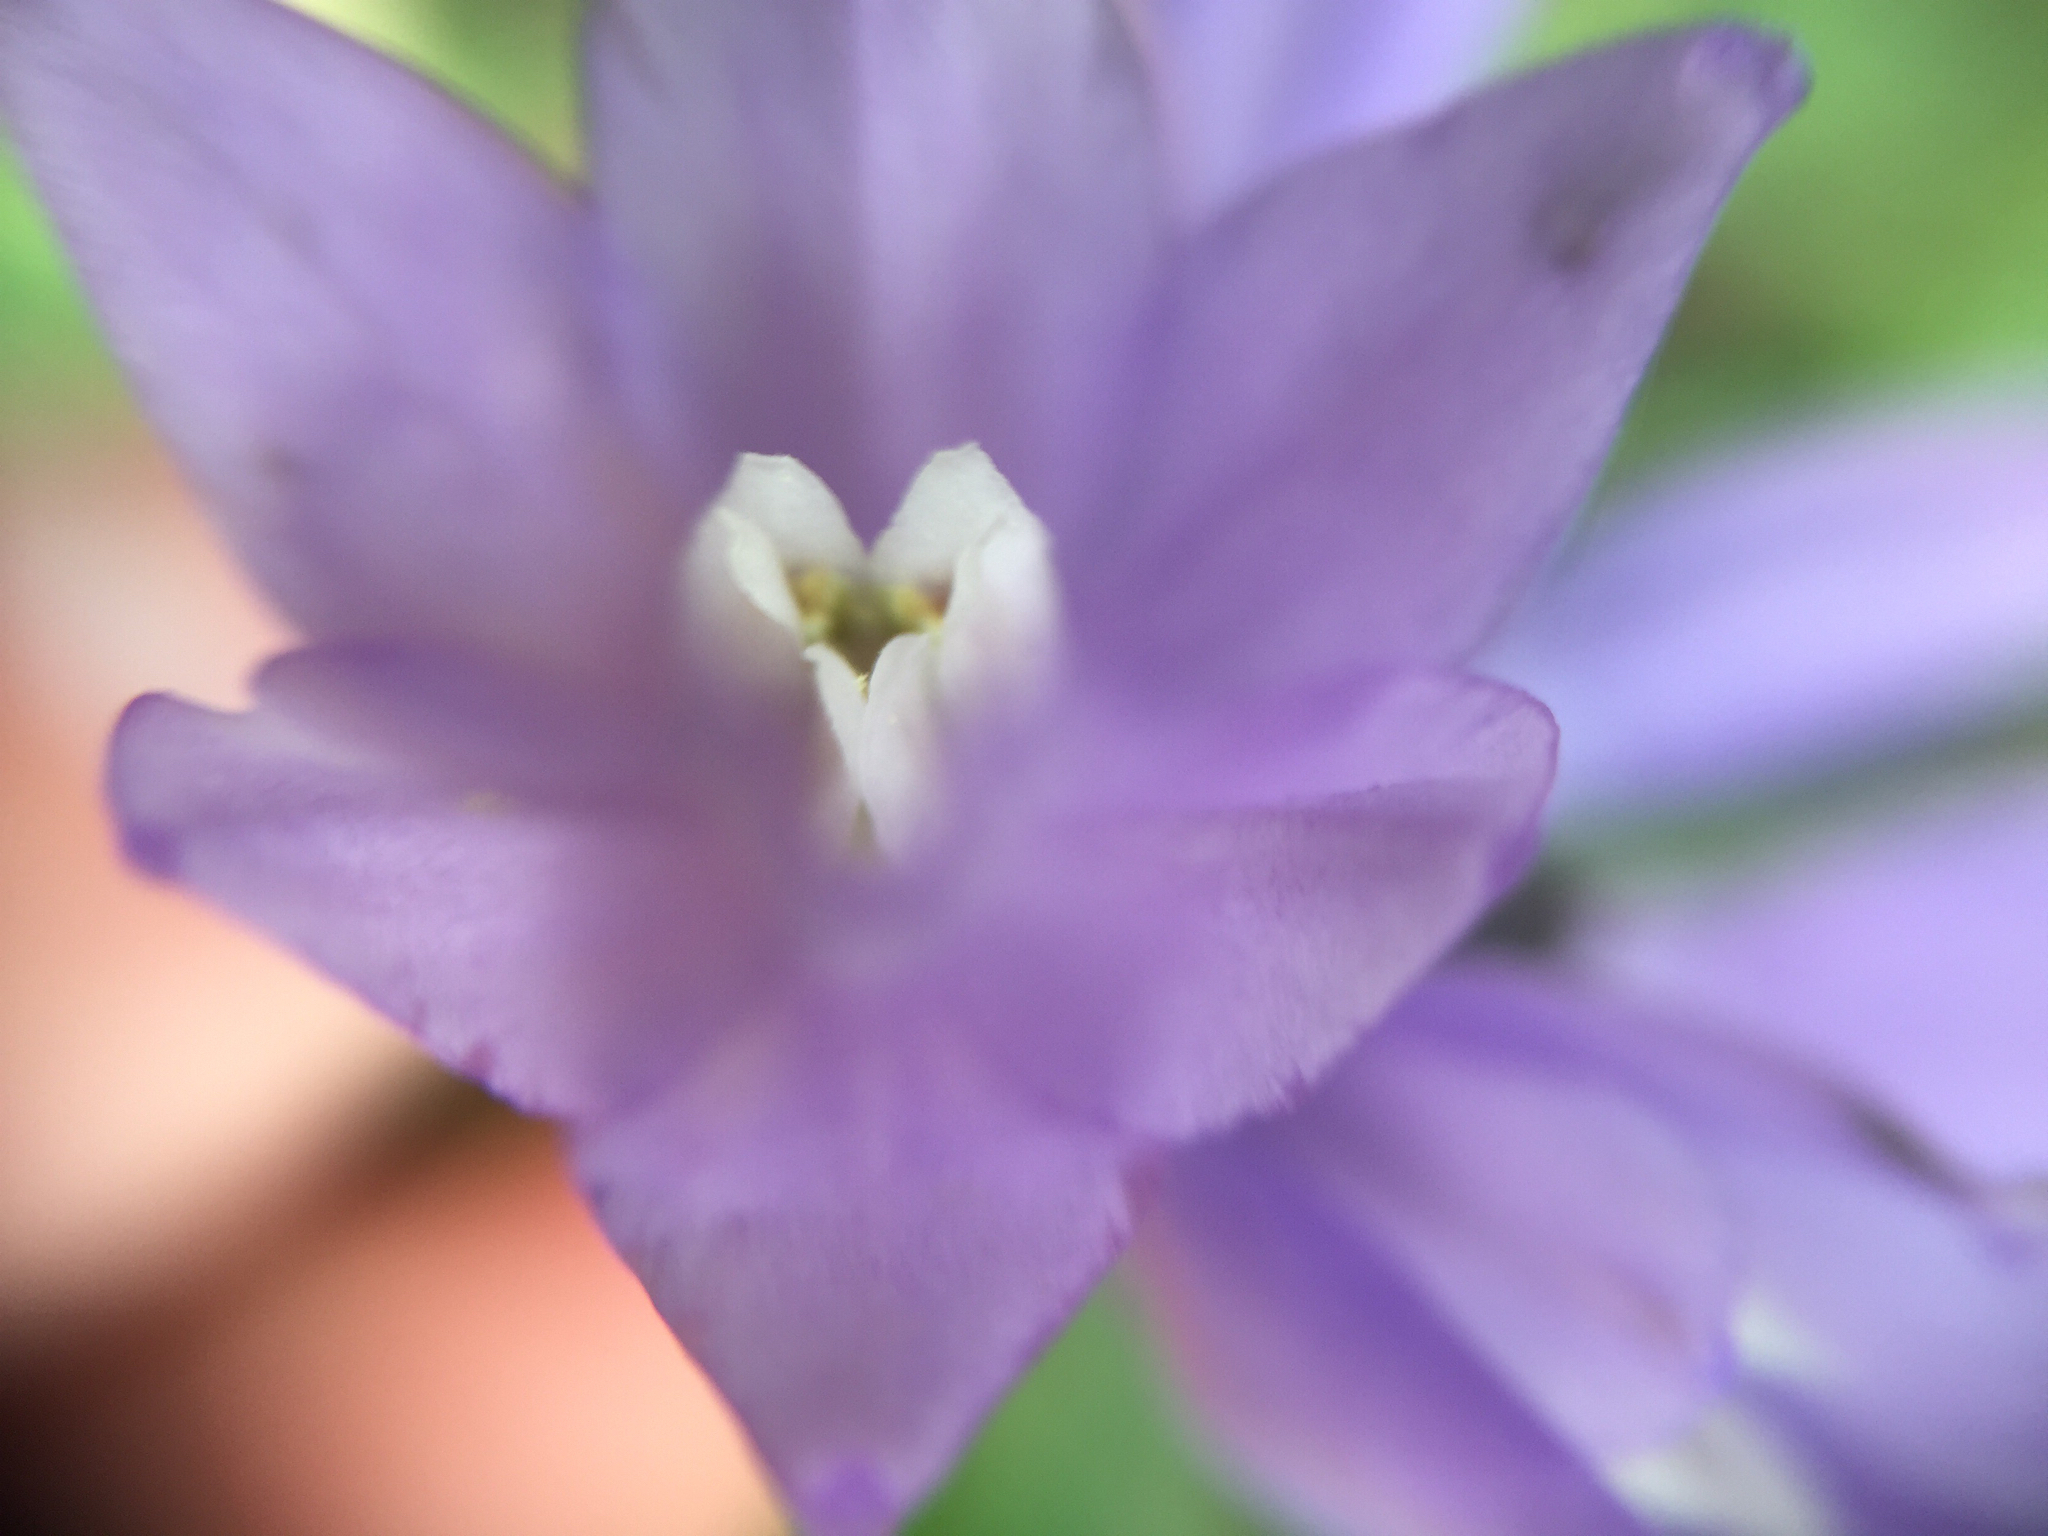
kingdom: Plantae
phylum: Tracheophyta
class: Liliopsida
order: Asparagales
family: Asparagaceae
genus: Dipterostemon
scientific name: Dipterostemon capitatus
